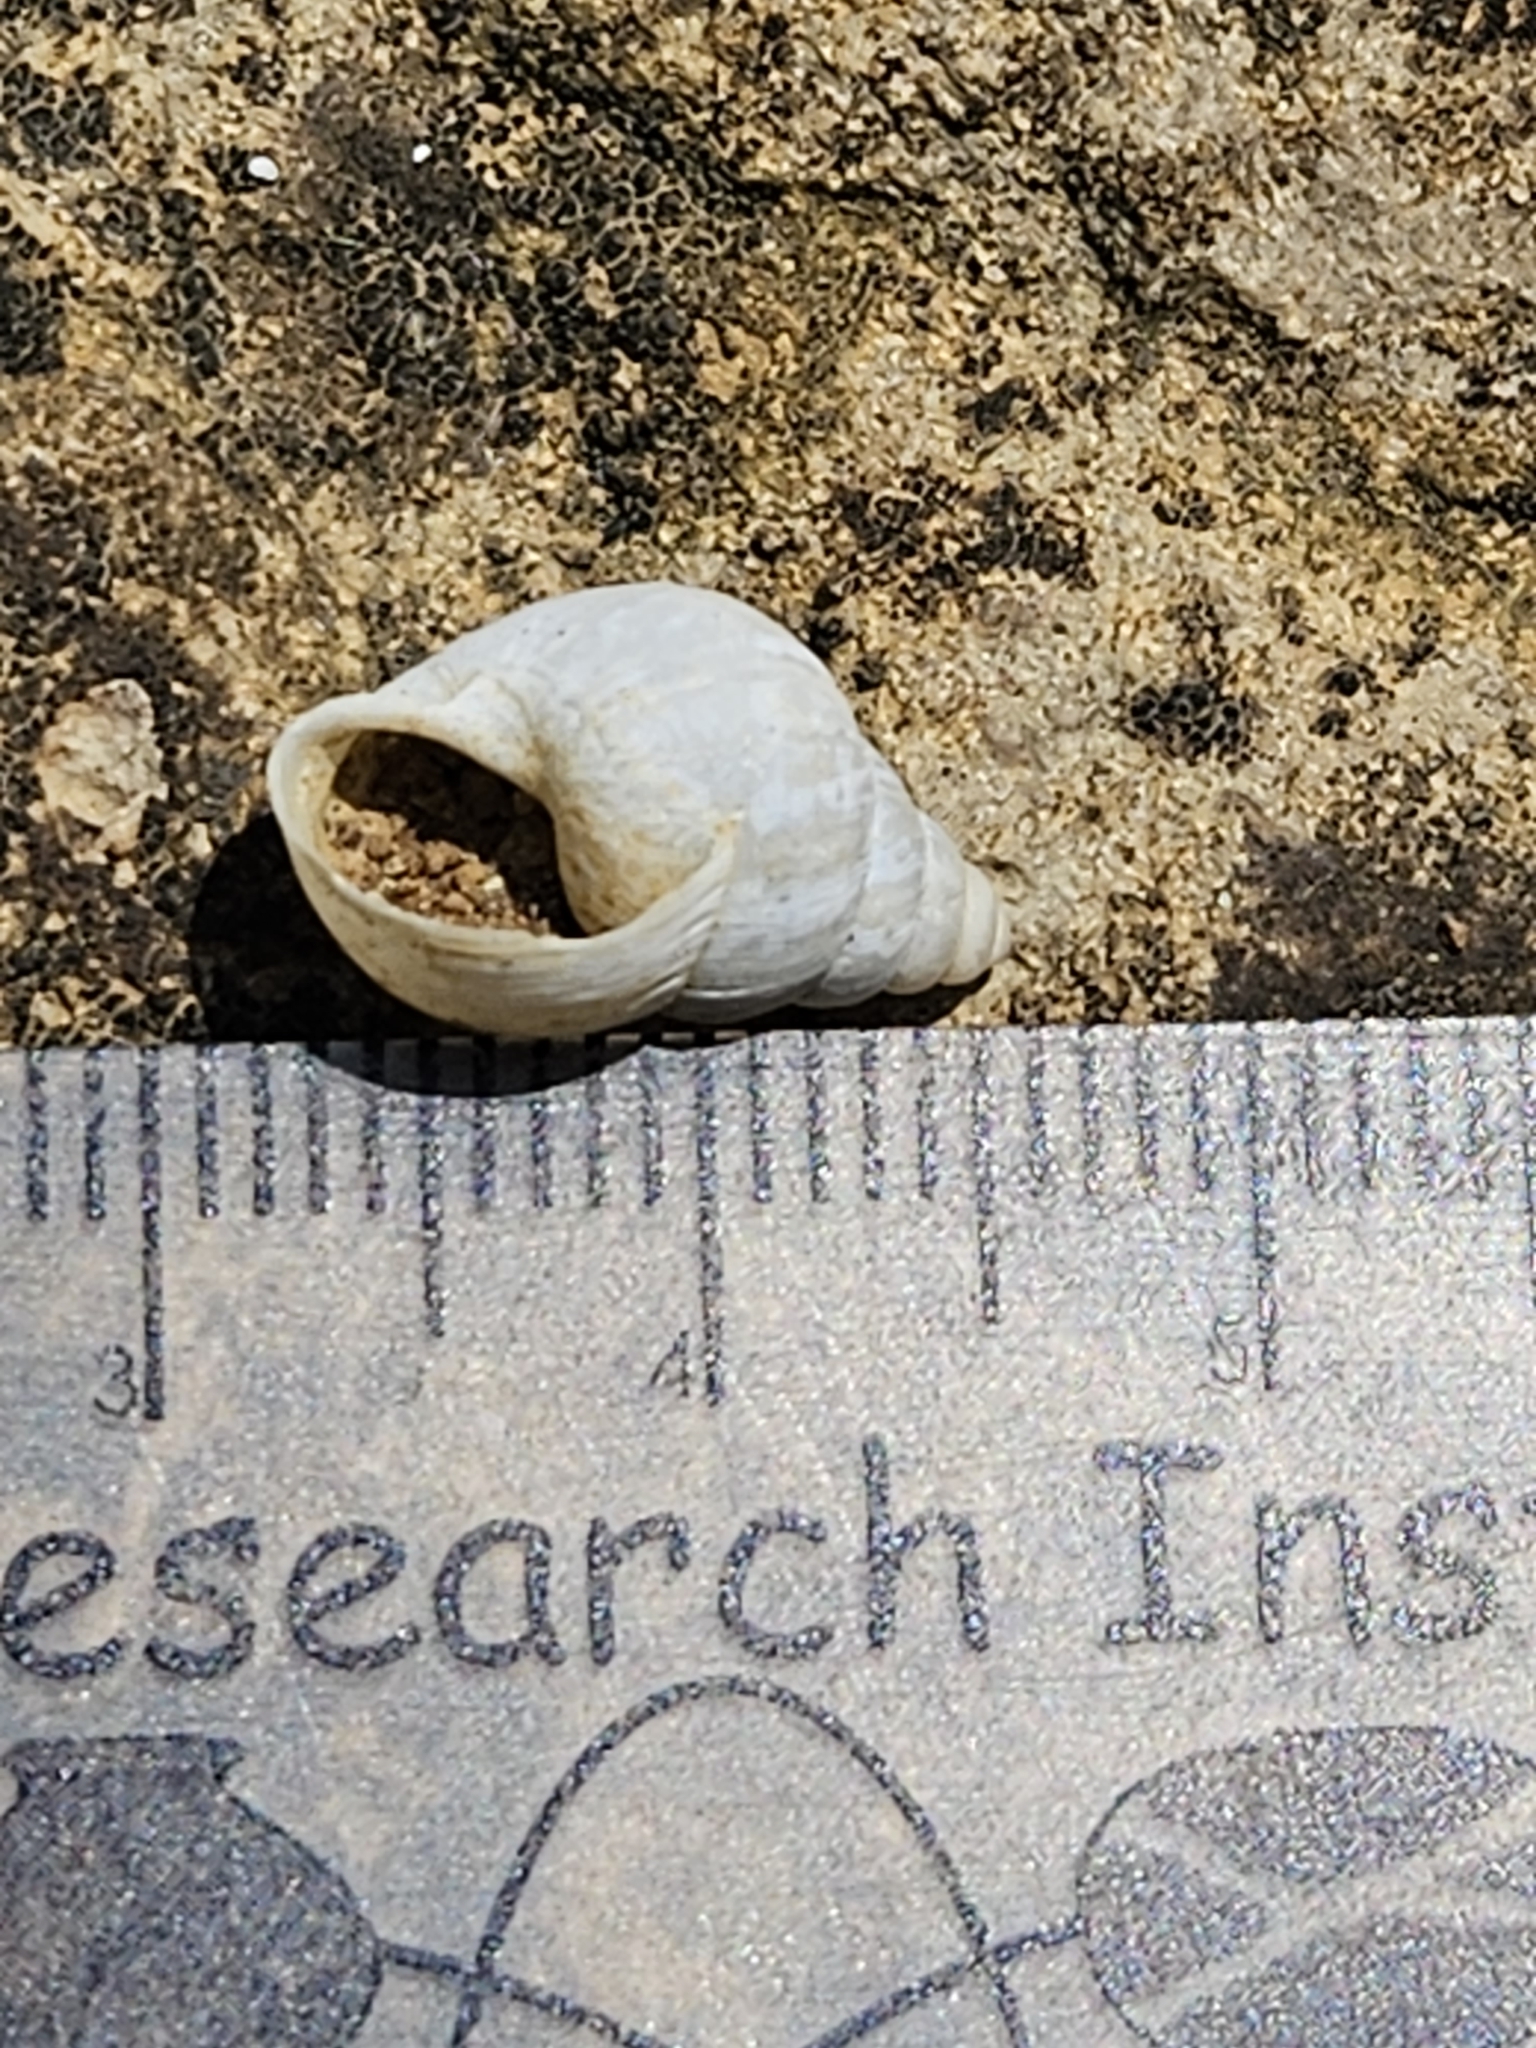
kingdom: Animalia
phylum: Mollusca
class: Gastropoda
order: Stylommatophora
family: Bulimulidae
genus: Rabdotus
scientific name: Rabdotus dealbatus
